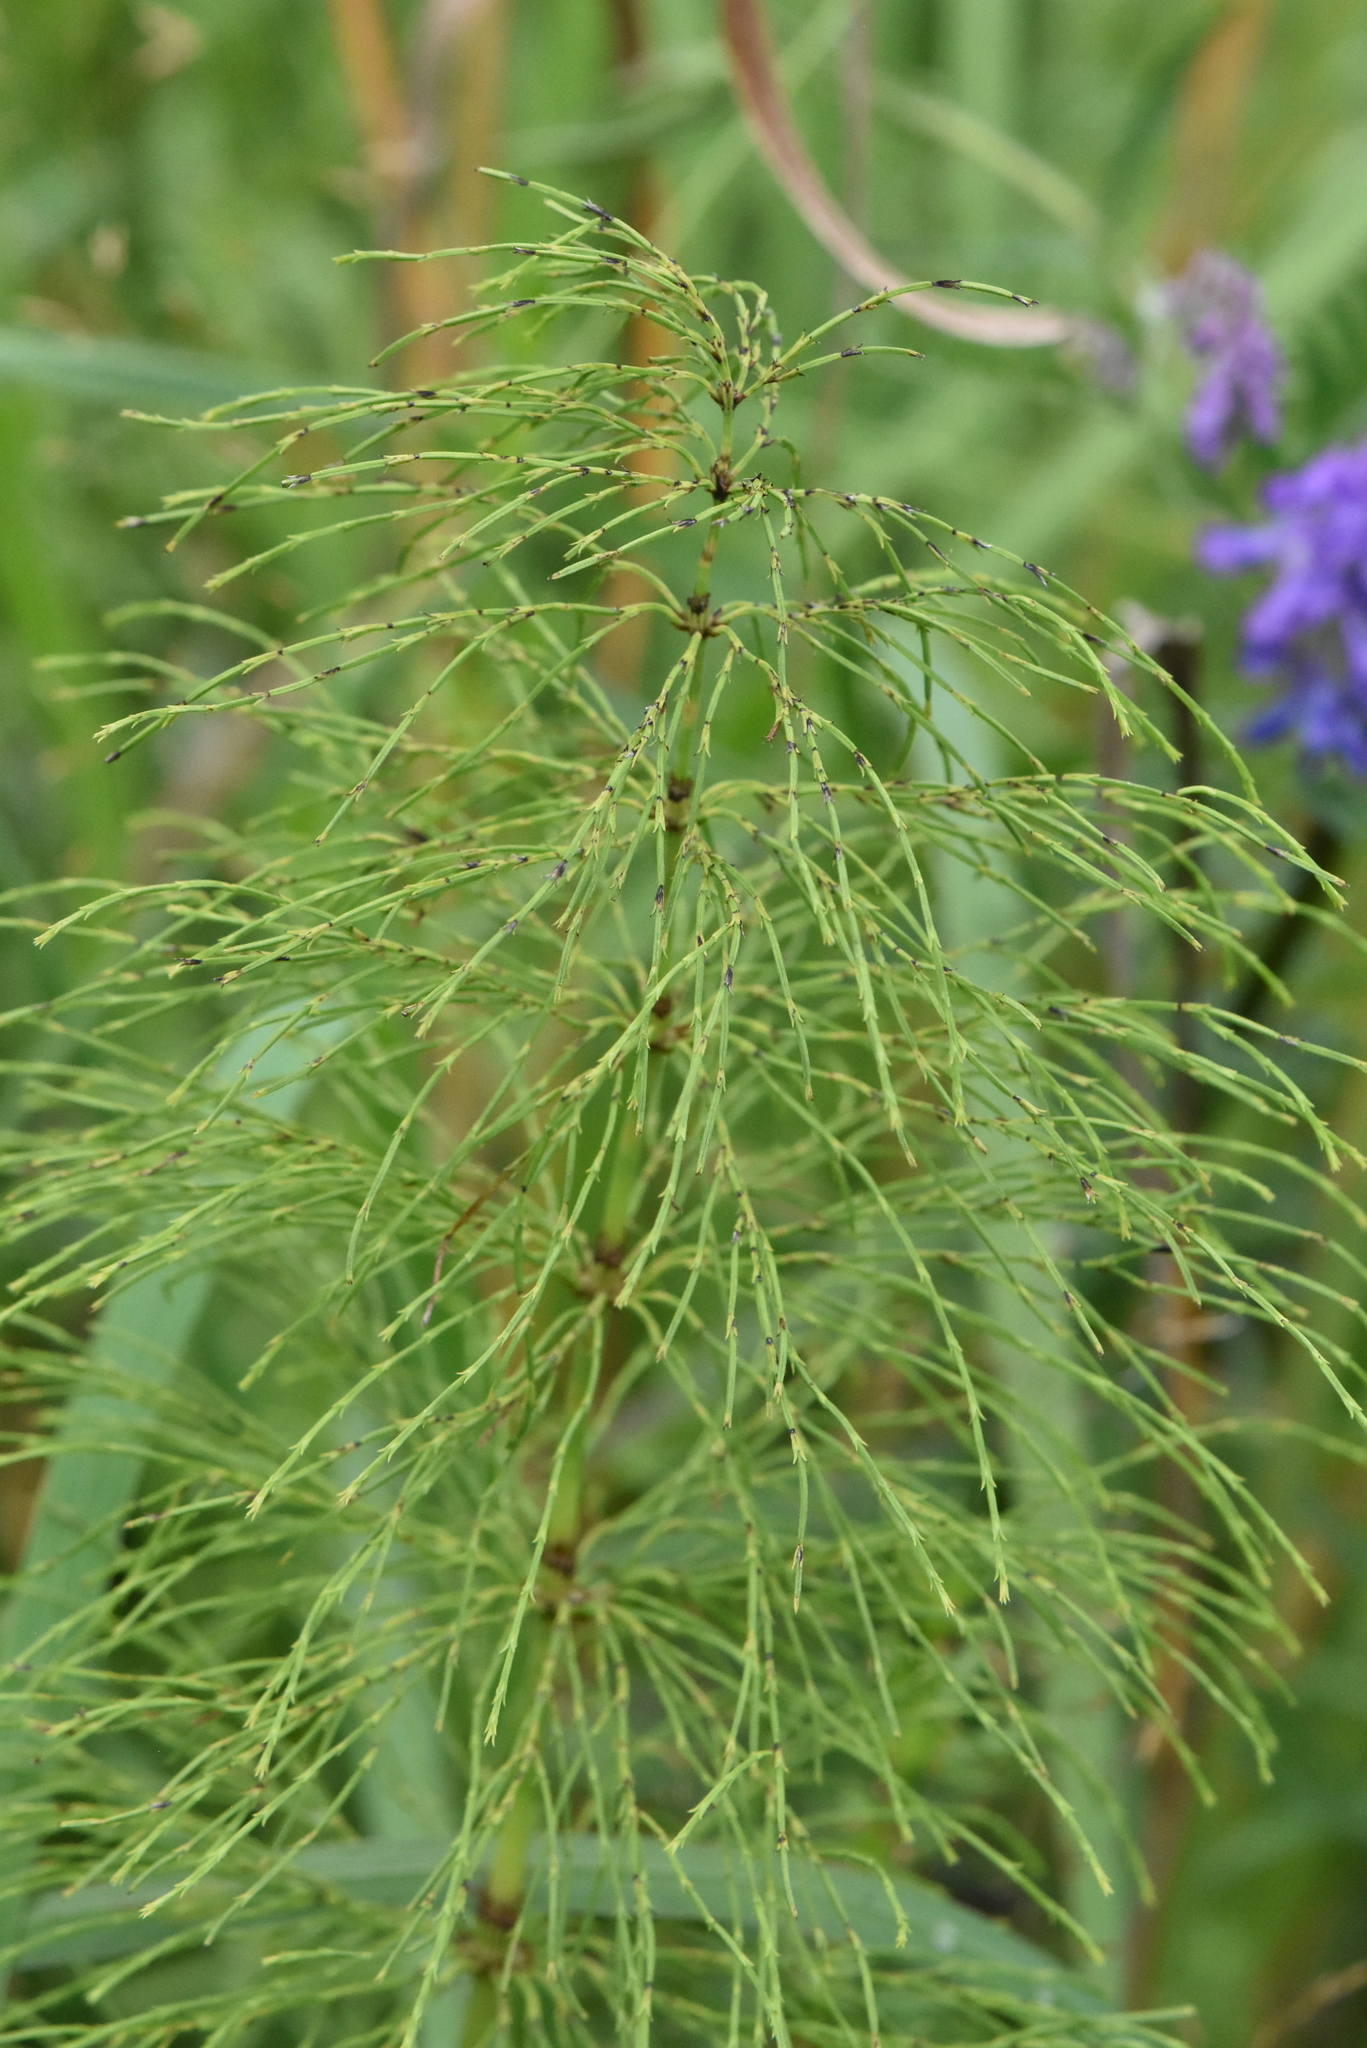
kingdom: Plantae
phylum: Tracheophyta
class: Polypodiopsida
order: Equisetales
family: Equisetaceae
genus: Equisetum
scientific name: Equisetum sylvaticum
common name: Wood horsetail
